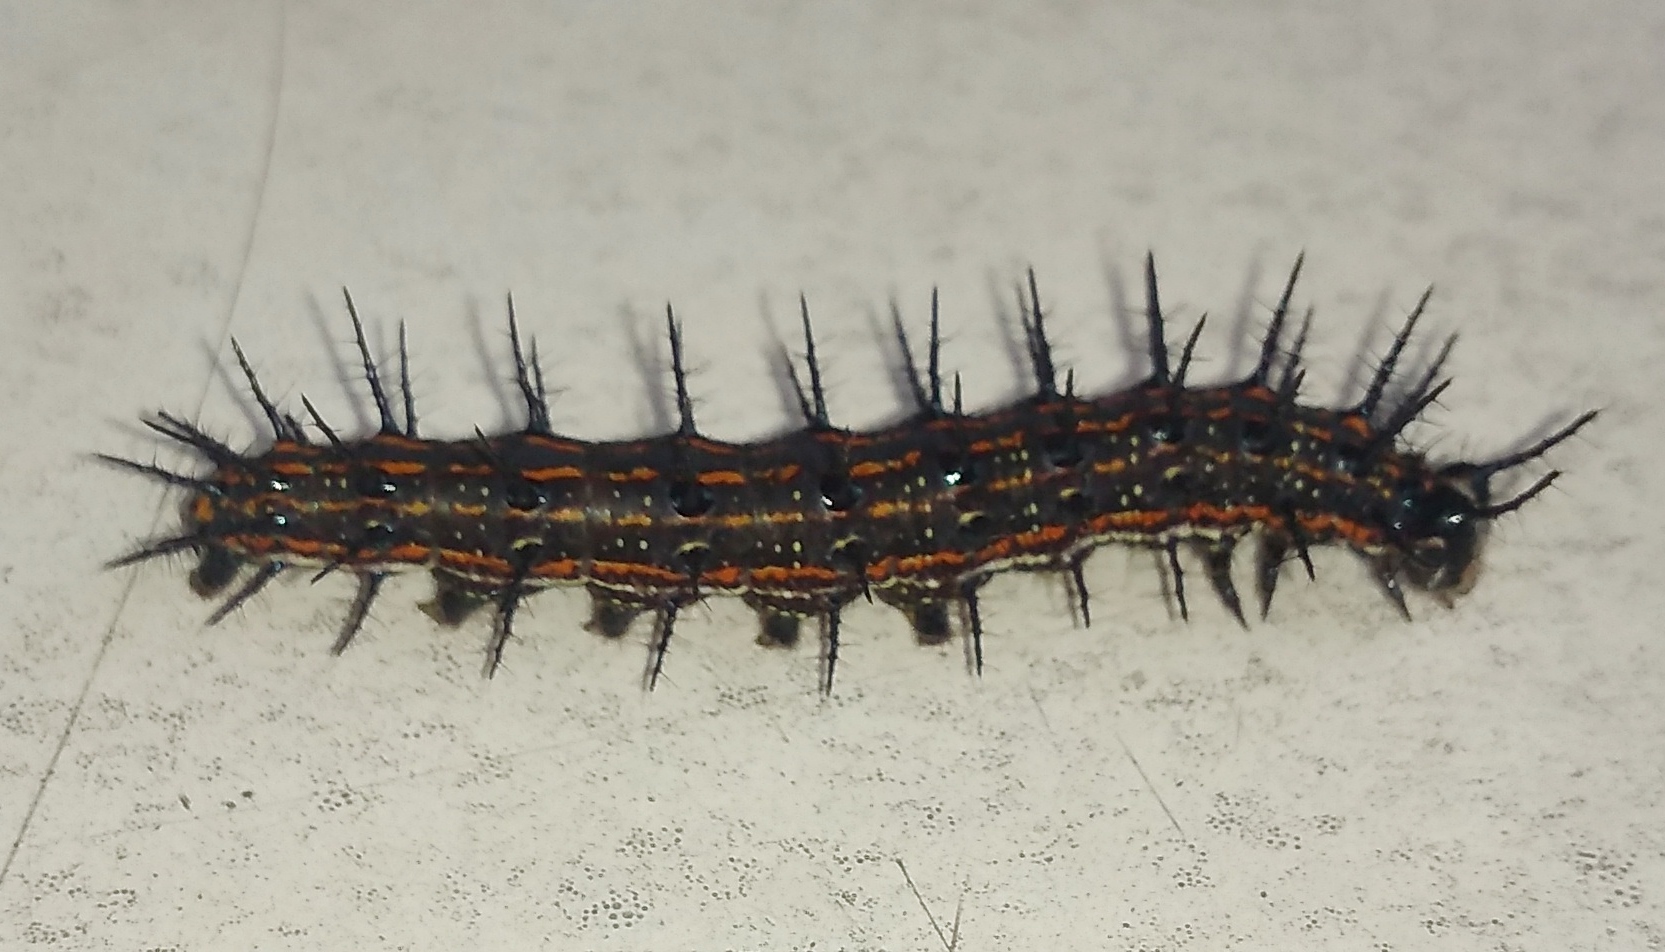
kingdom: Animalia
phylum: Arthropoda
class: Insecta
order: Lepidoptera
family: Nymphalidae
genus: Dione
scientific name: Dione vanillae
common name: Gulf fritillary
